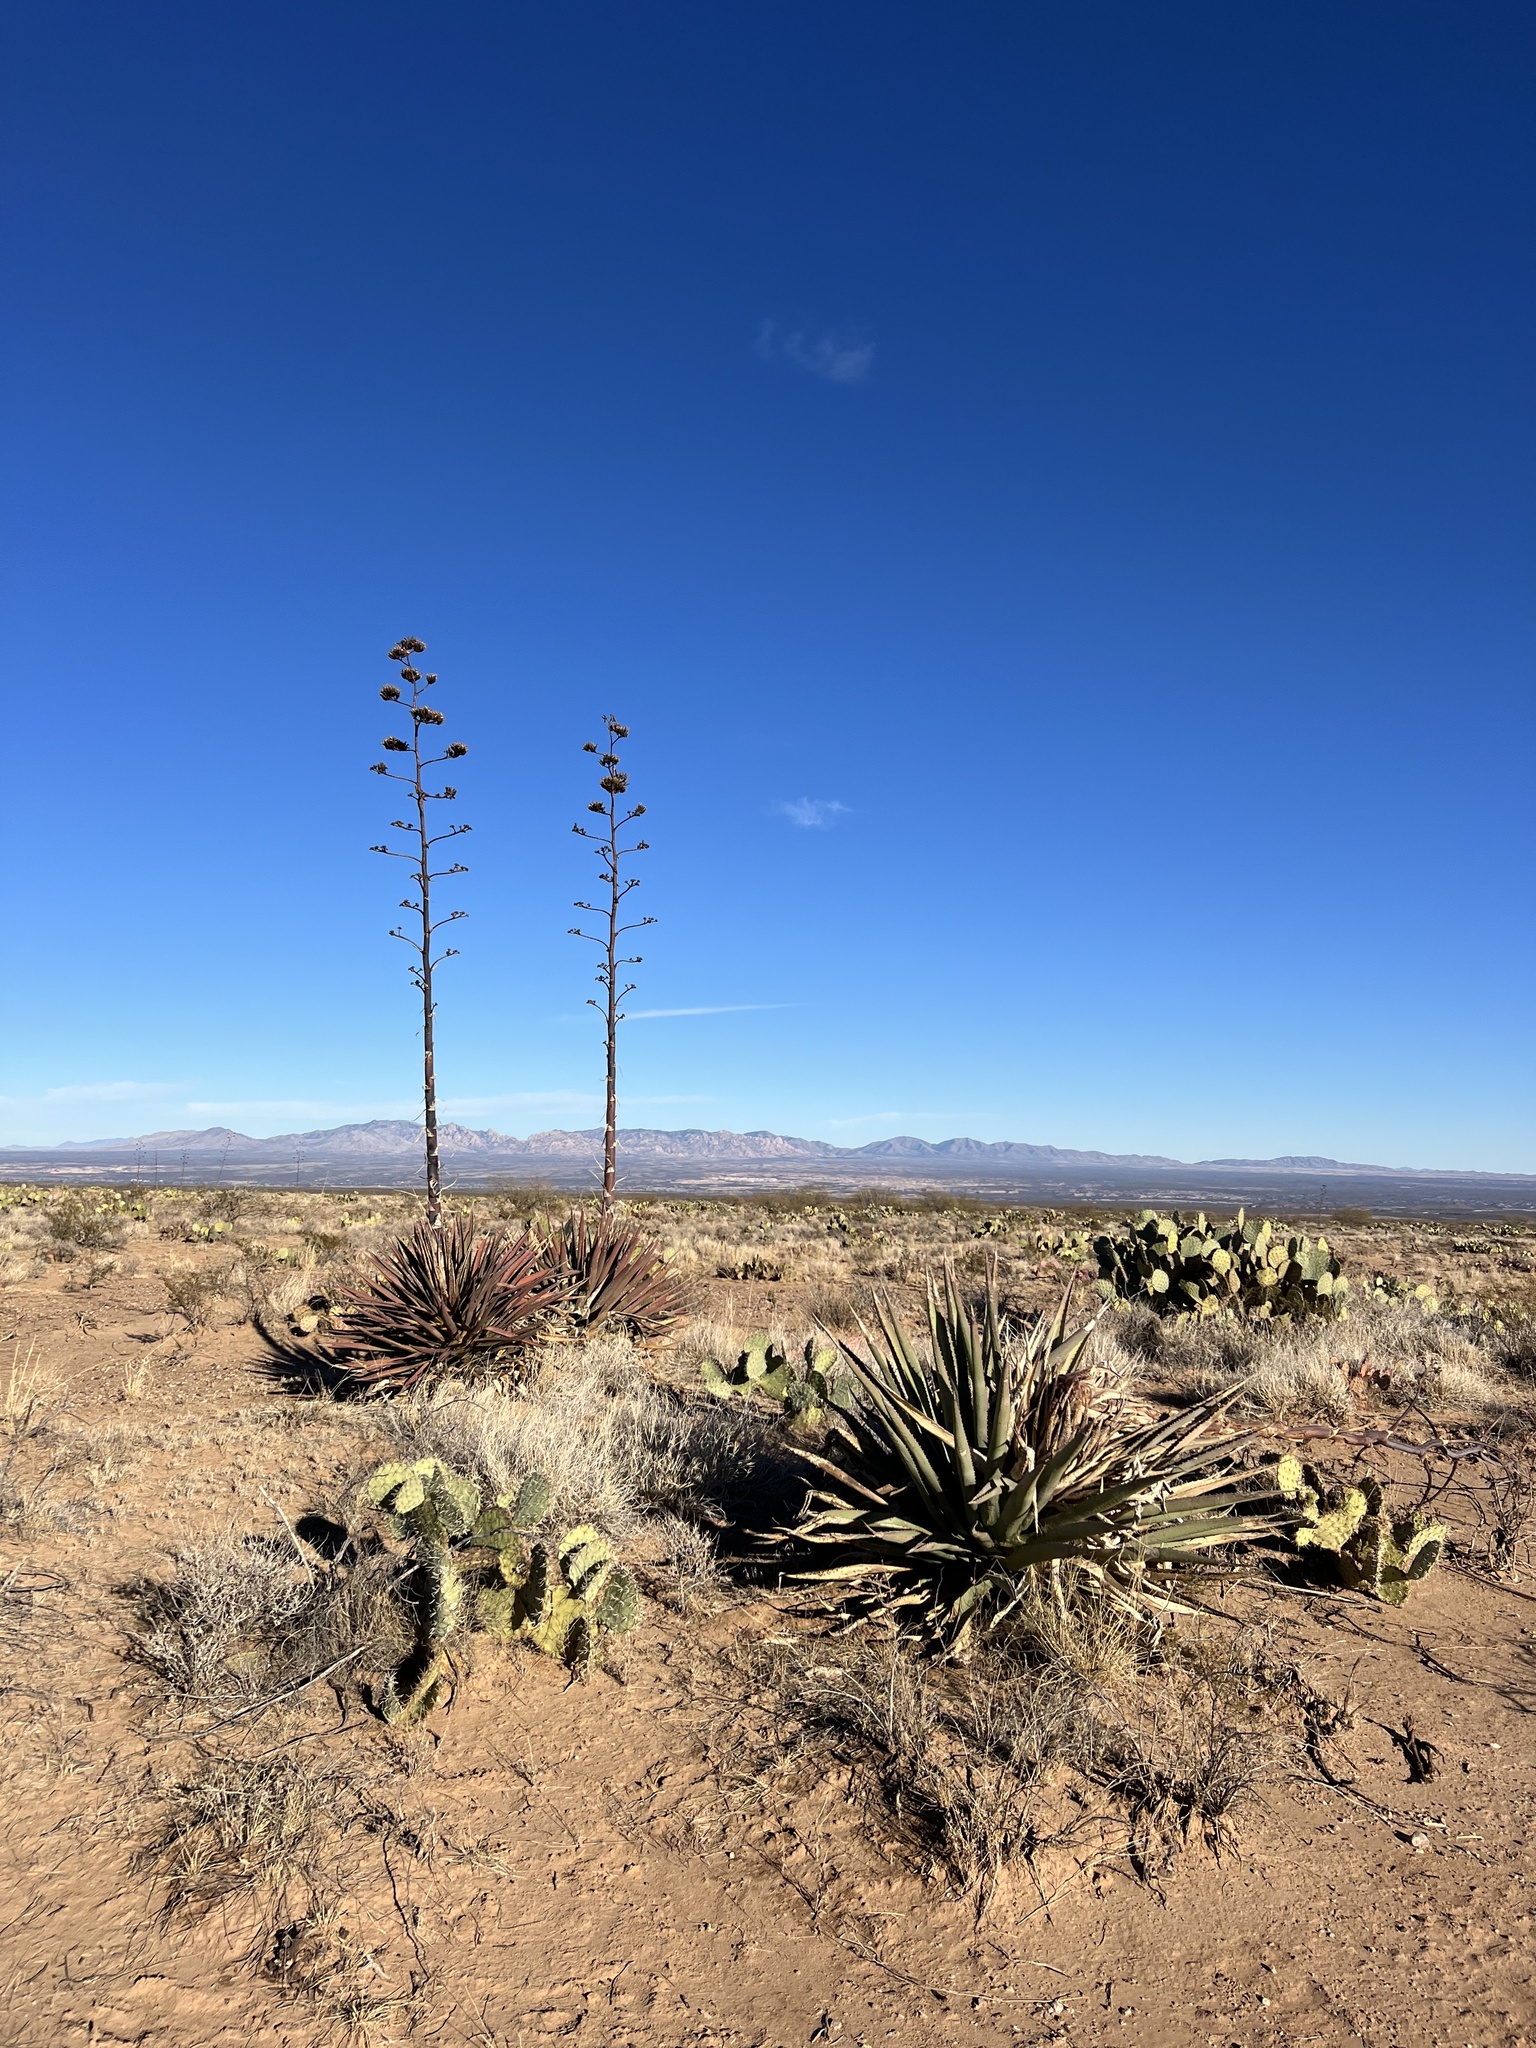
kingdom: Plantae
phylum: Tracheophyta
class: Liliopsida
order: Asparagales
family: Asparagaceae
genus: Agave
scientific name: Agave palmeri
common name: Palmer agave
